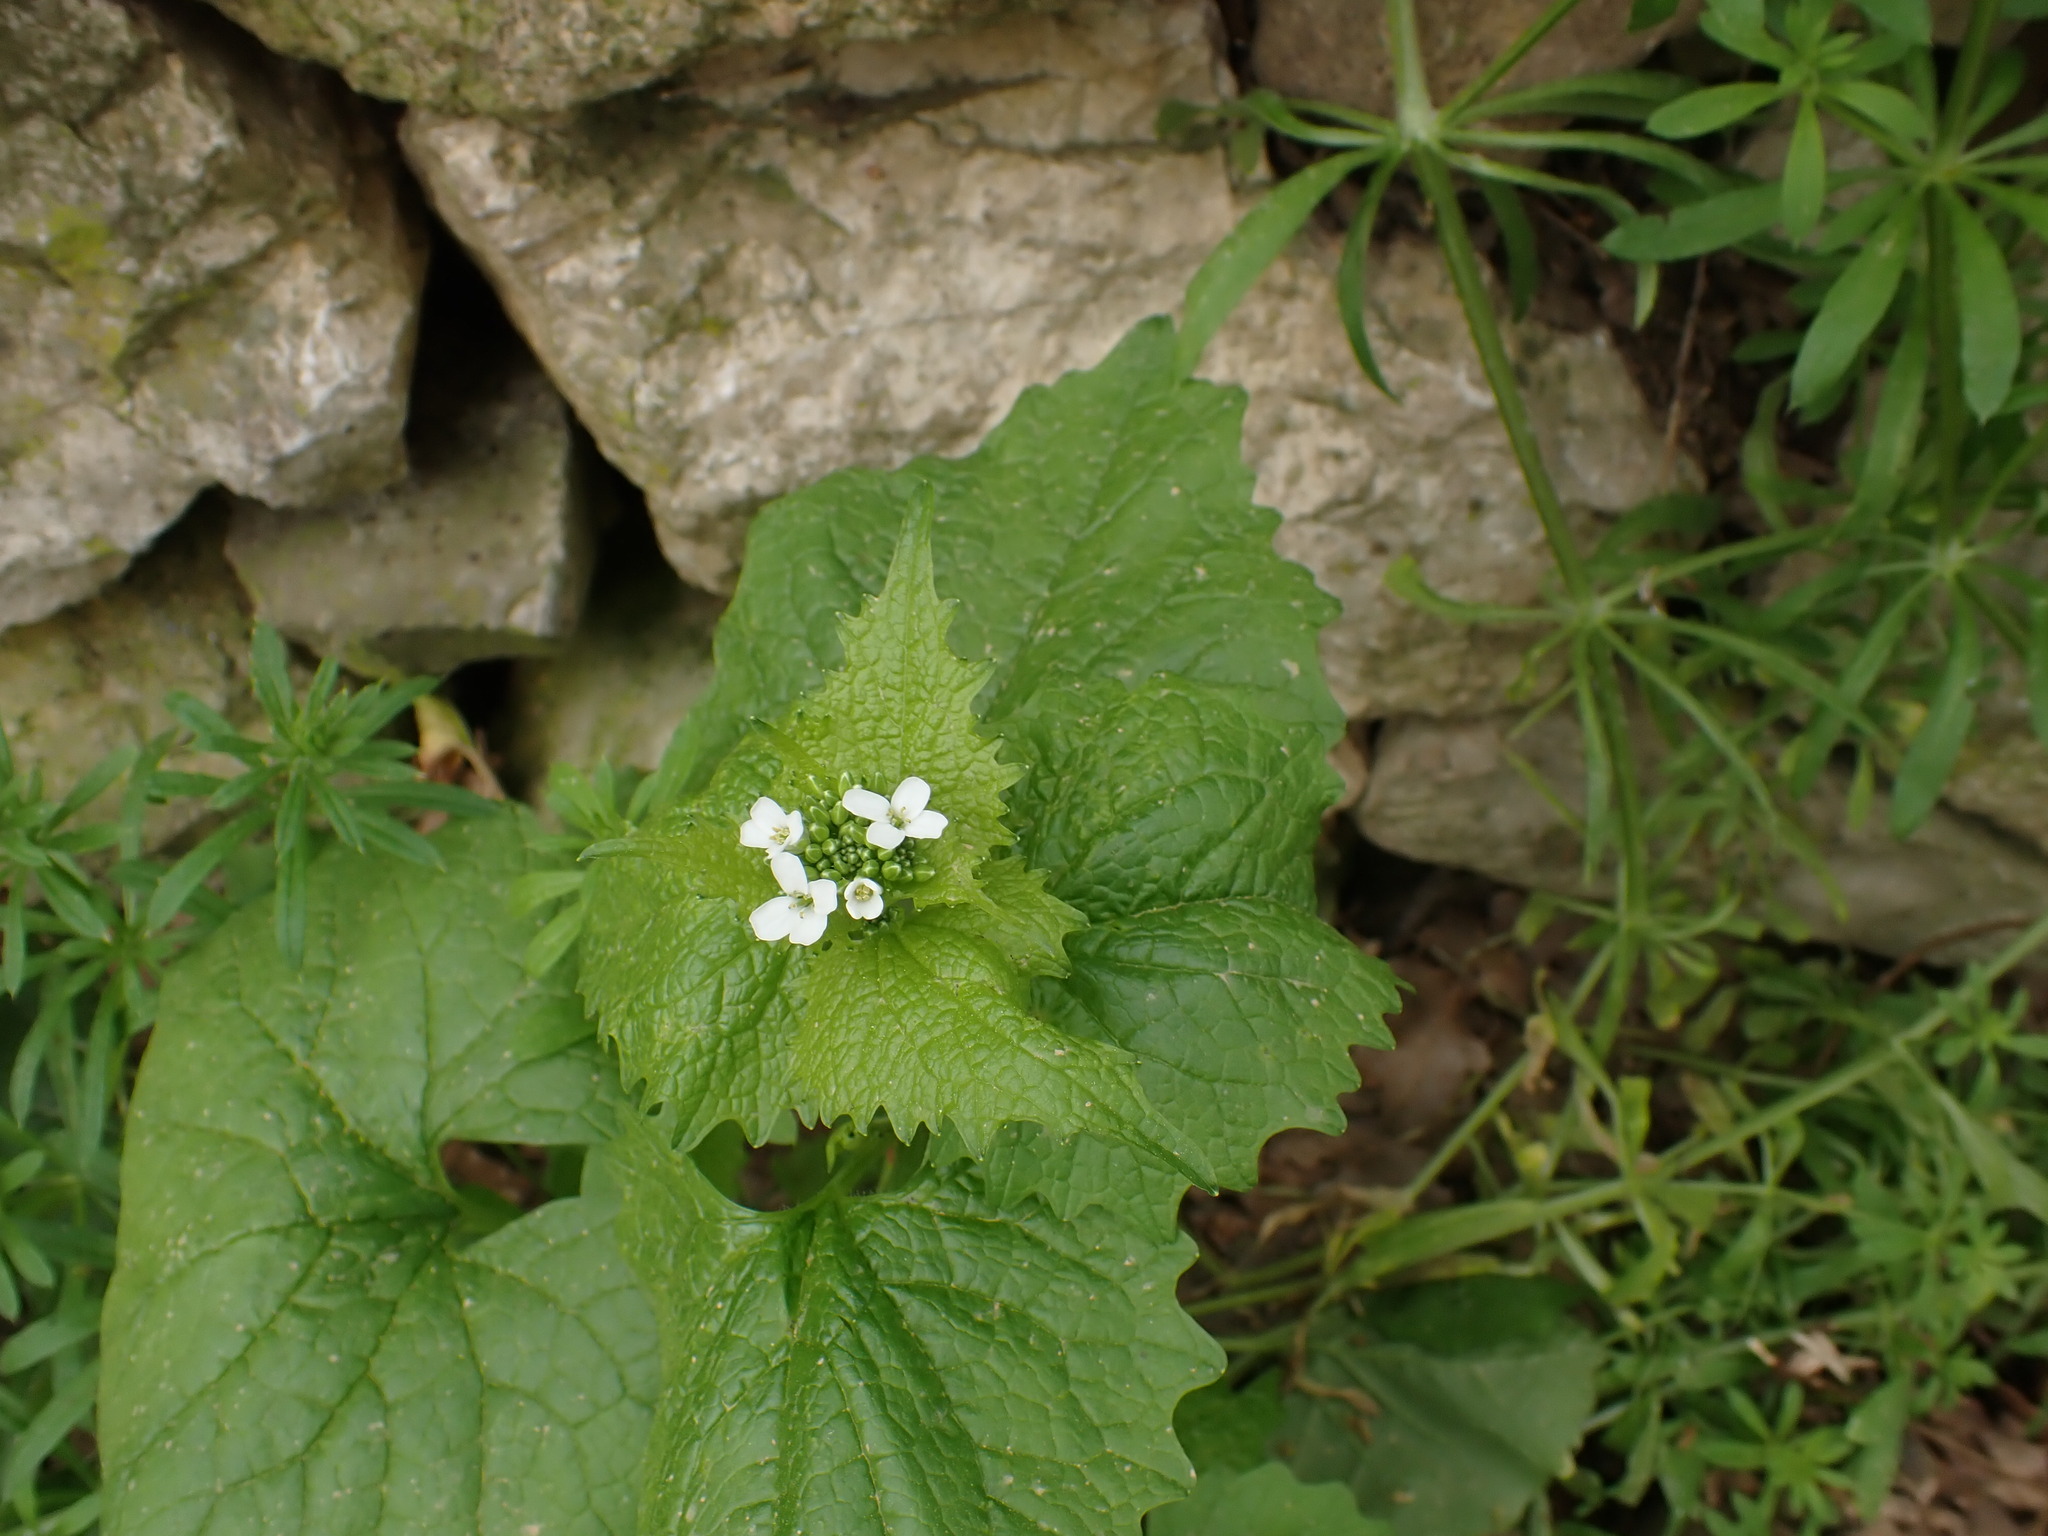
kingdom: Plantae
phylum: Tracheophyta
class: Magnoliopsida
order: Brassicales
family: Brassicaceae
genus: Alliaria
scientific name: Alliaria petiolata
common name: Garlic mustard
